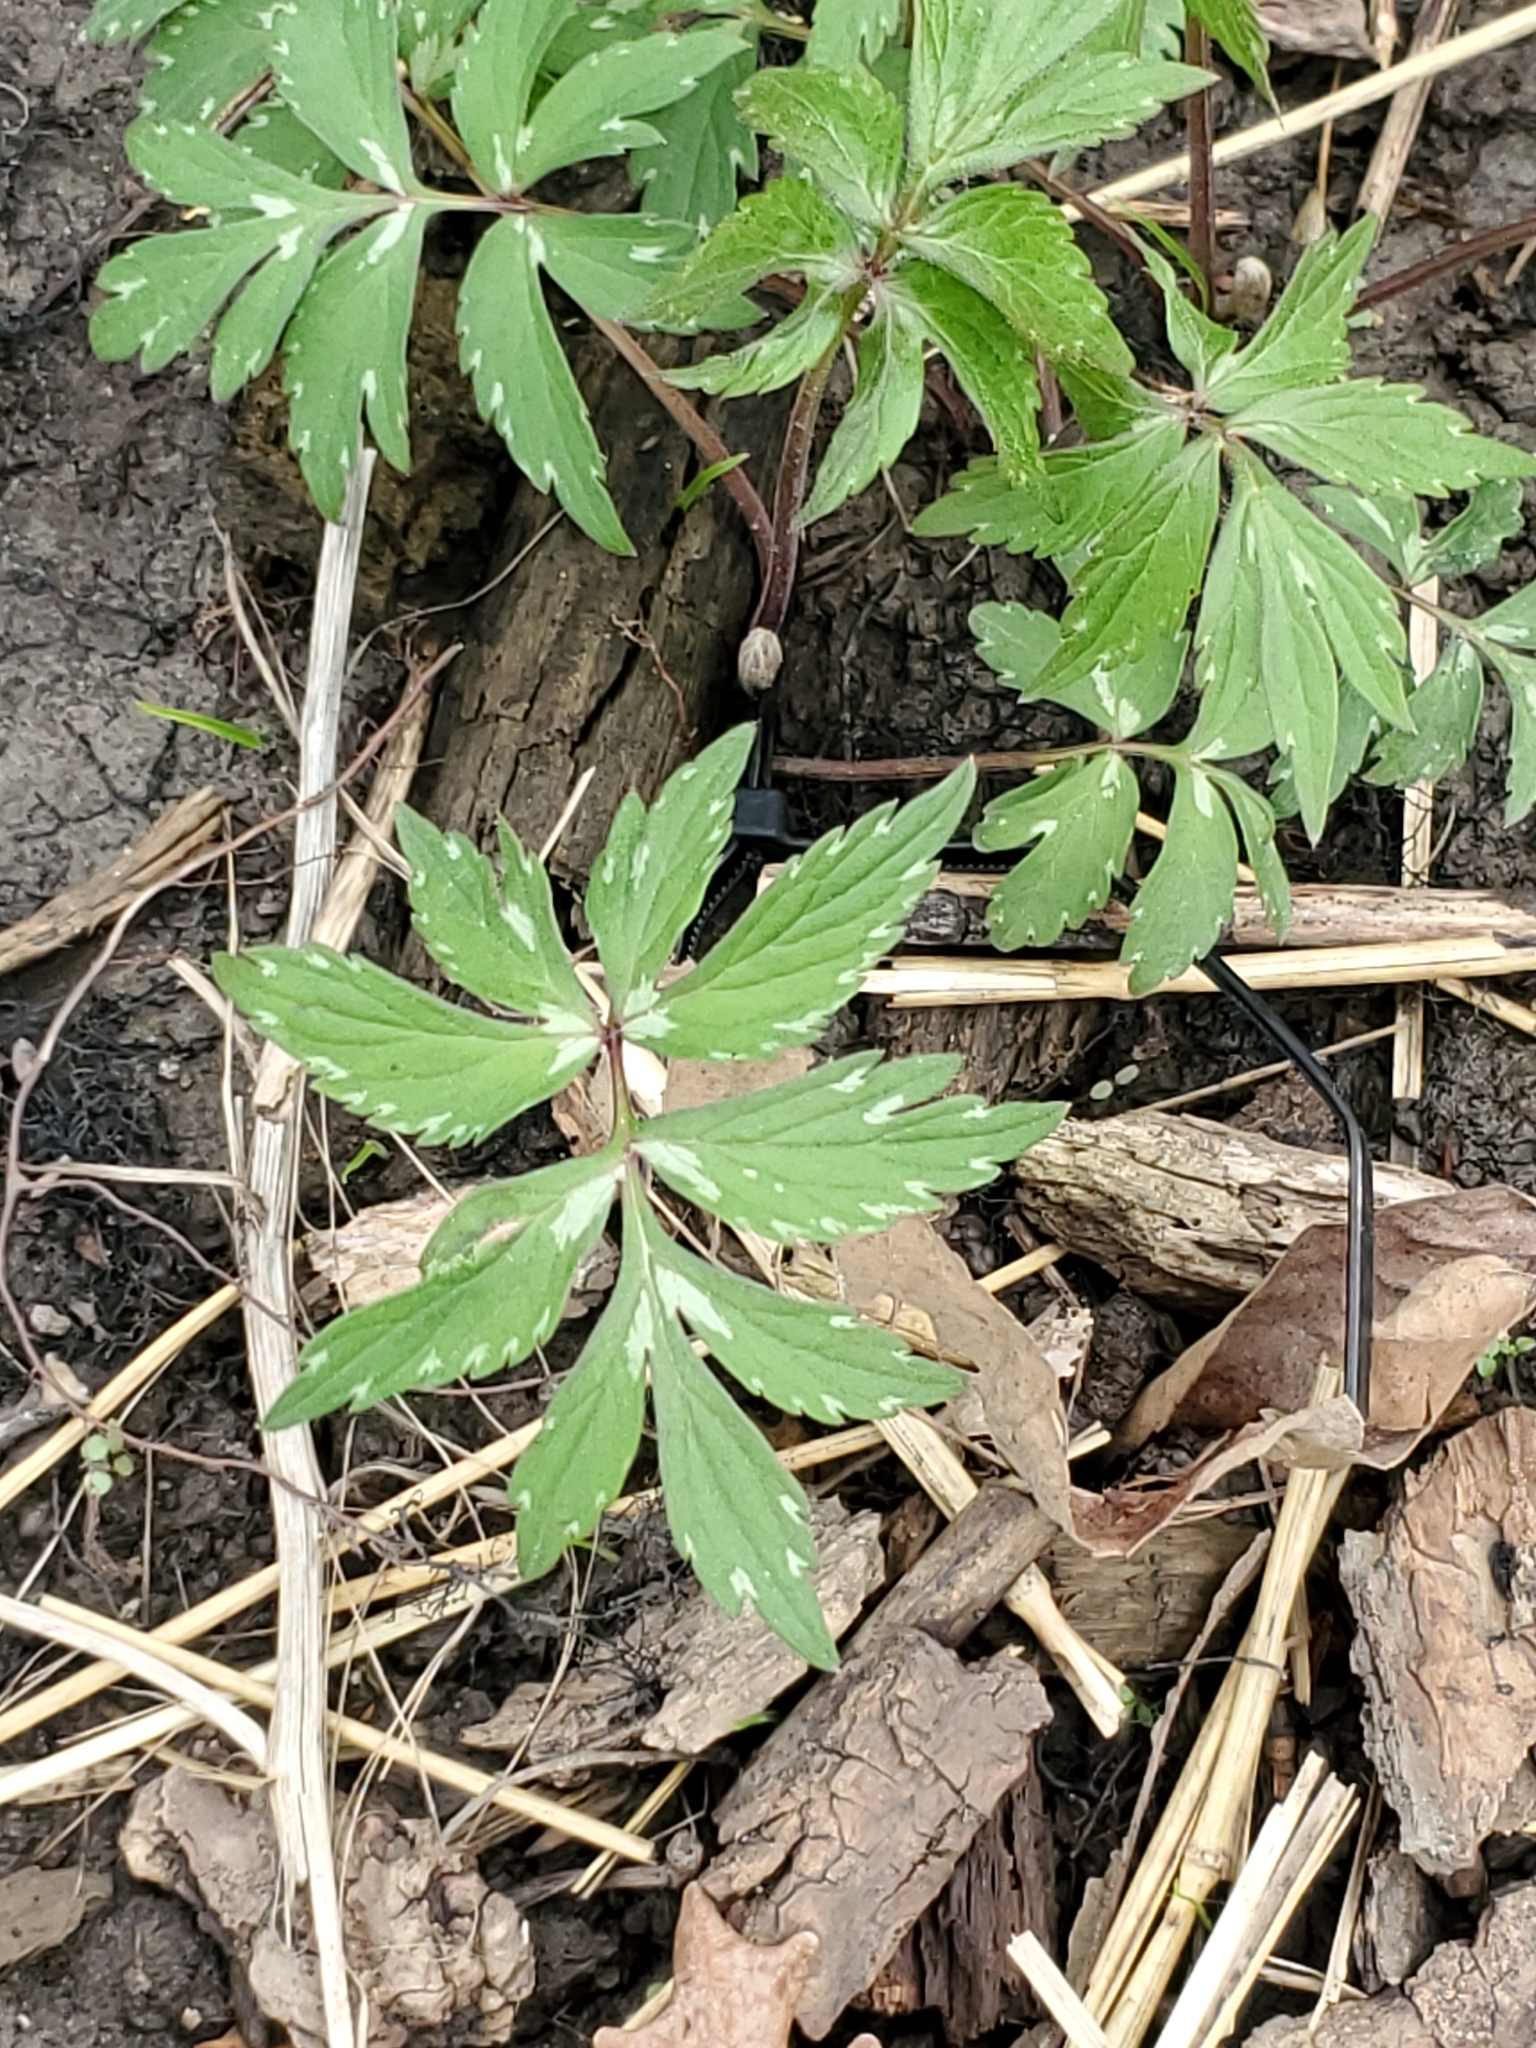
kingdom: Plantae
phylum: Tracheophyta
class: Magnoliopsida
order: Boraginales
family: Hydrophyllaceae
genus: Hydrophyllum
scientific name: Hydrophyllum virginianum
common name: Virginia waterleaf
